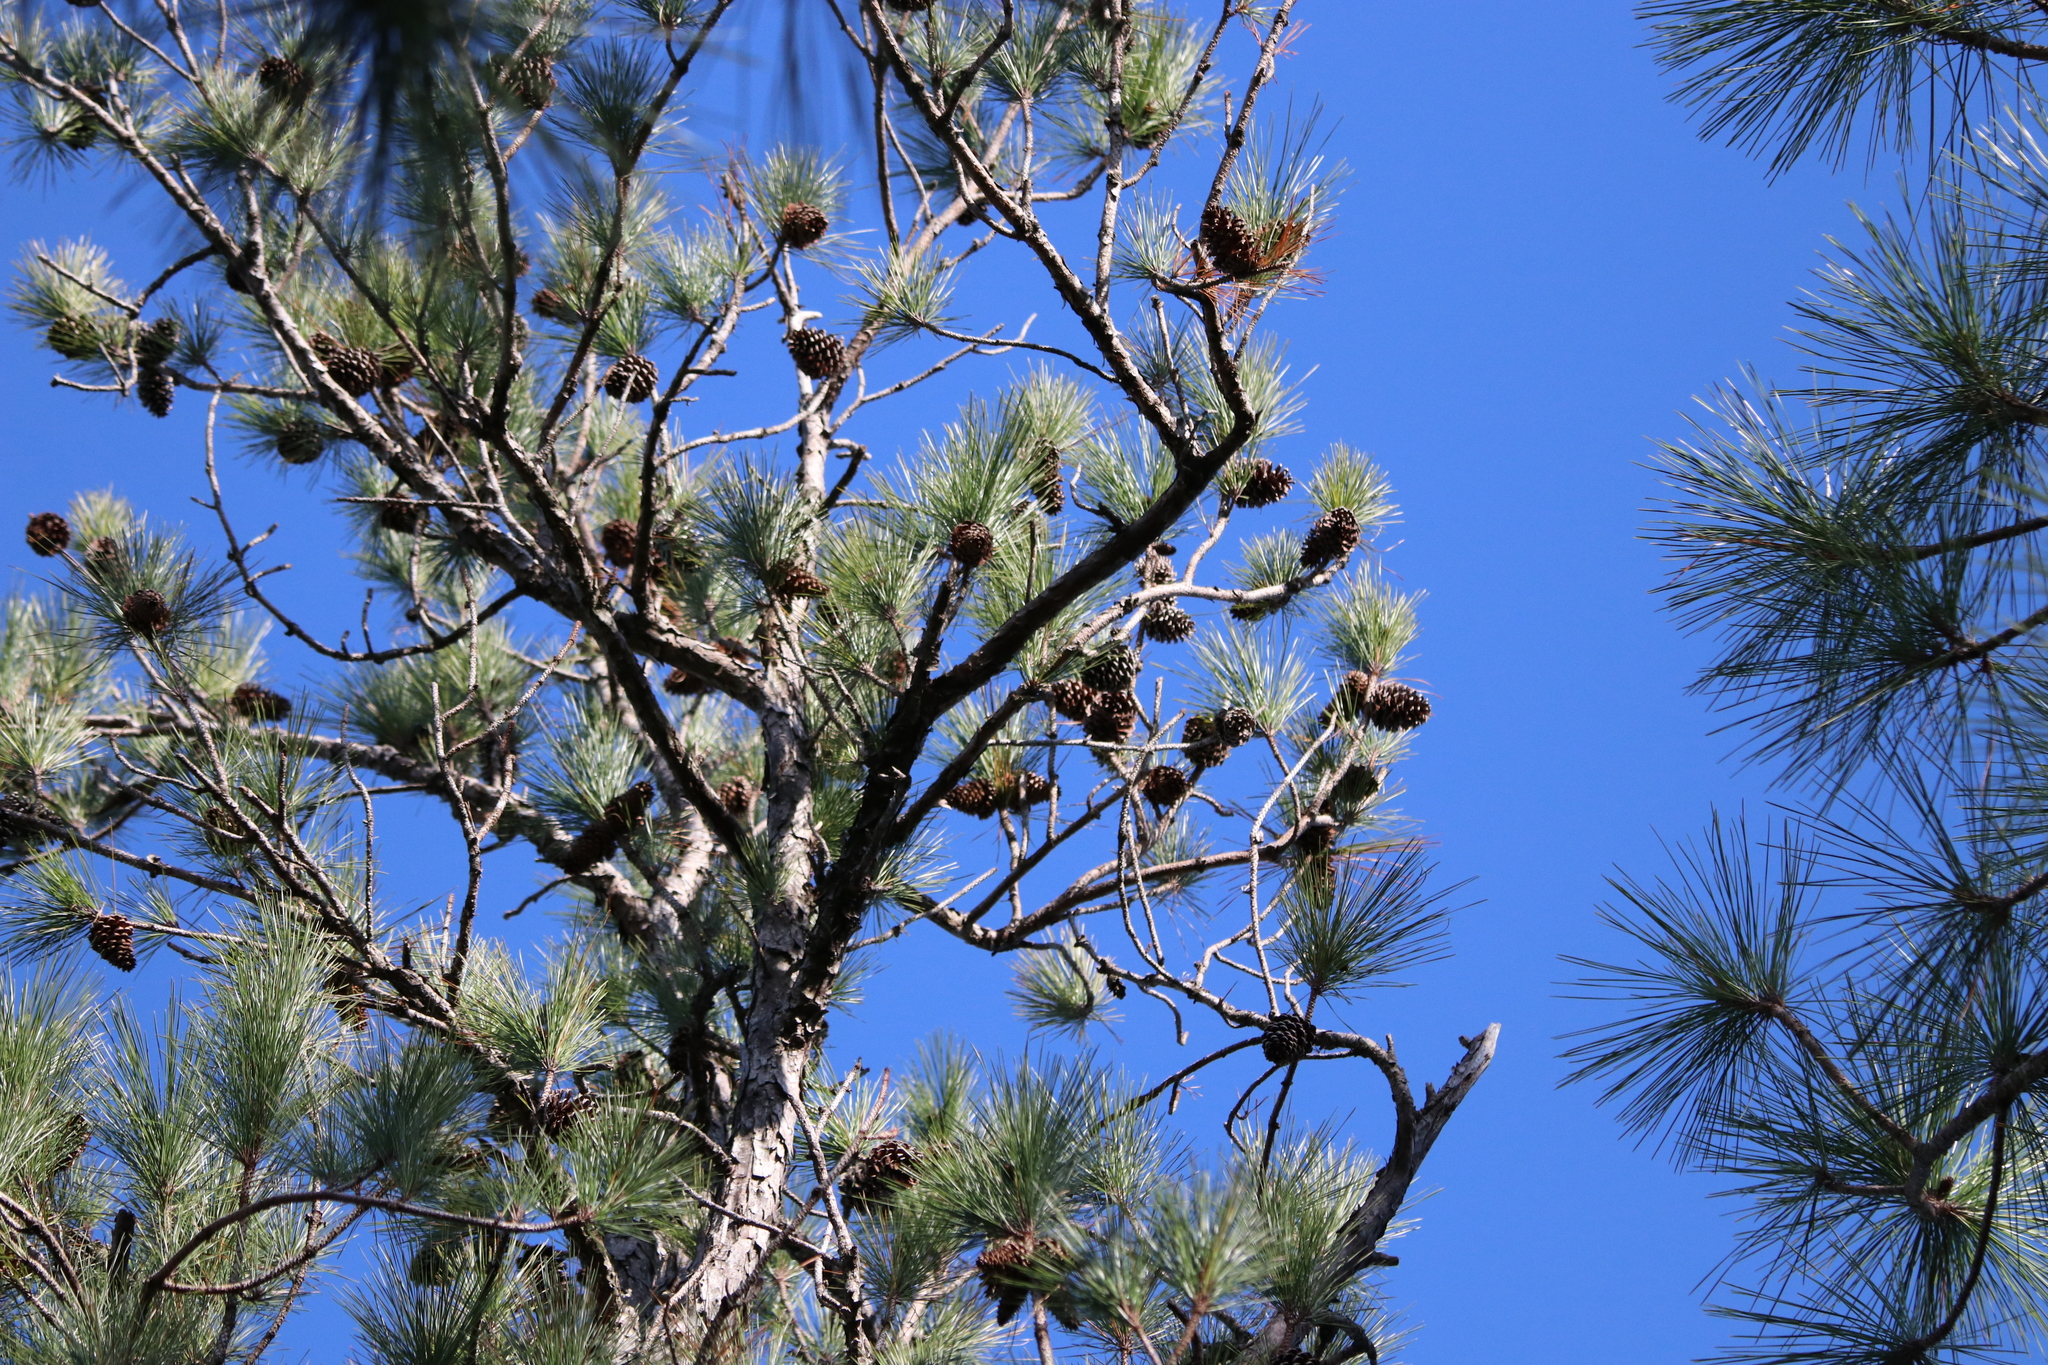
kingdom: Plantae
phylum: Tracheophyta
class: Pinopsida
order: Pinales
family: Pinaceae
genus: Pinus
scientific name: Pinus taeda
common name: Loblolly pine
